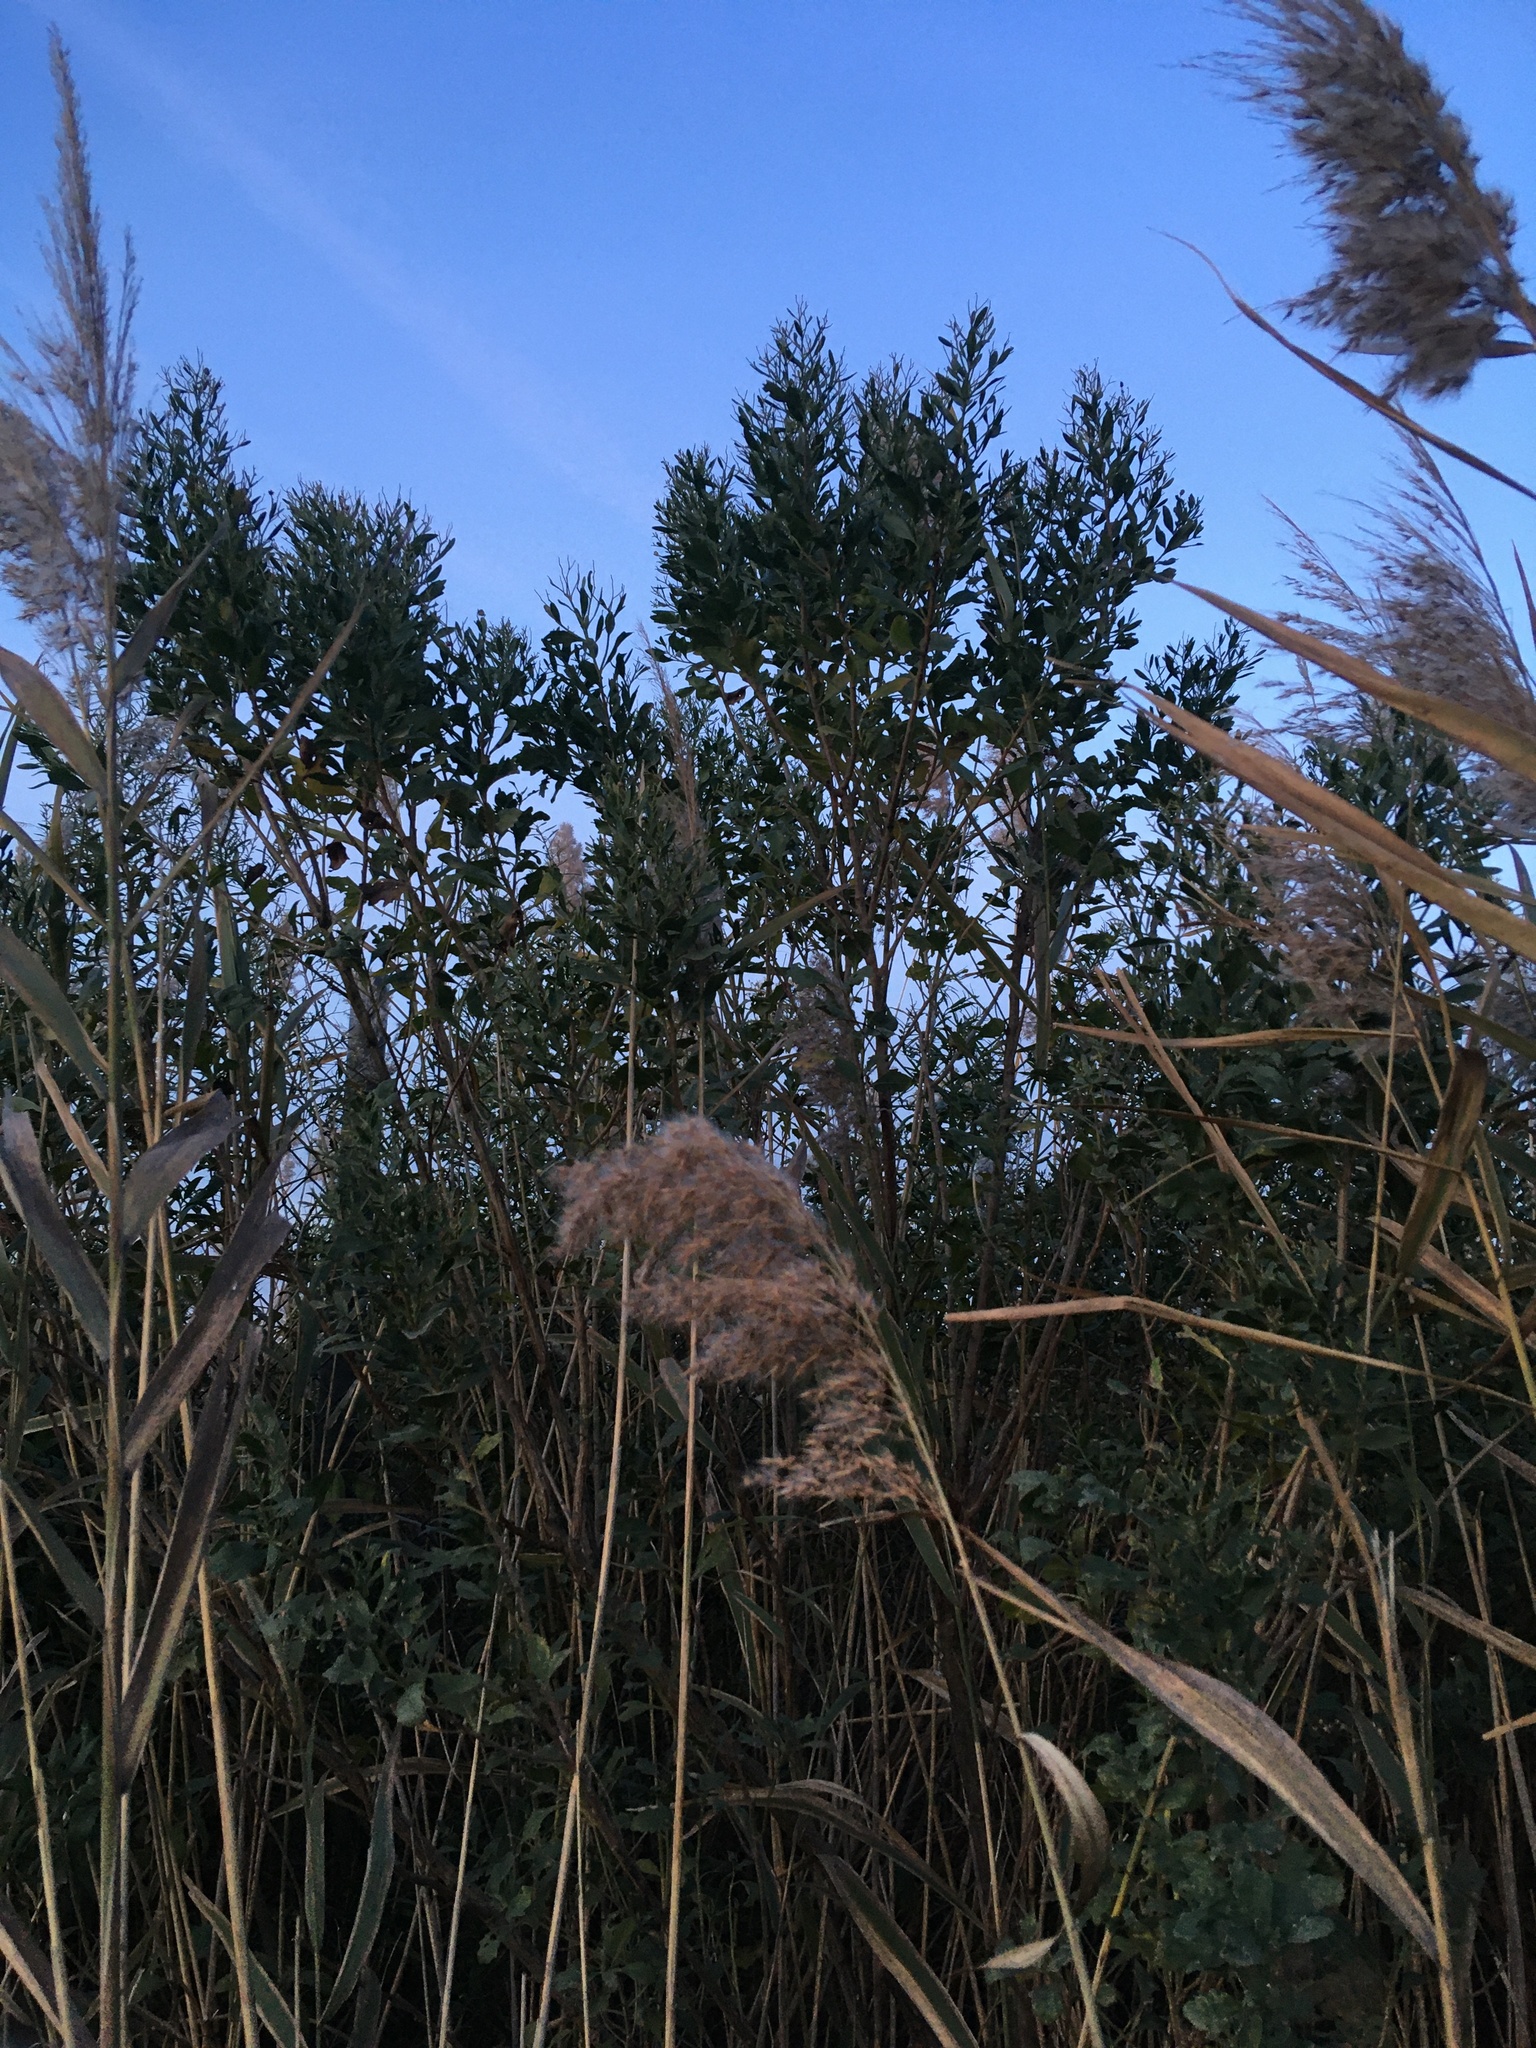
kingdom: Plantae
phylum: Tracheophyta
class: Magnoliopsida
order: Asterales
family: Asteraceae
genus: Baccharis
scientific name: Baccharis halimifolia
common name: Eastern baccharis
